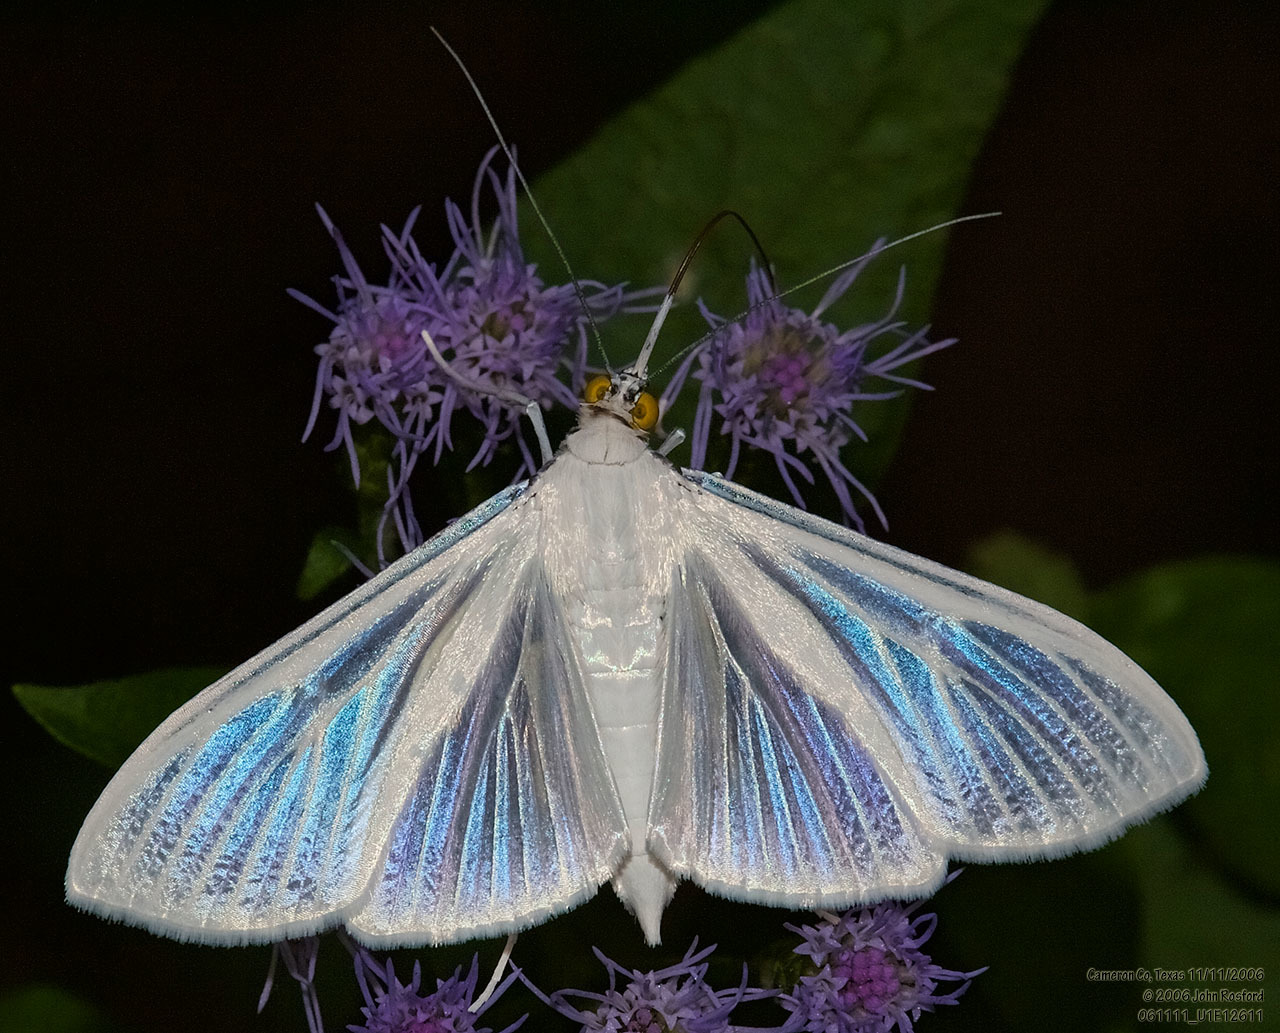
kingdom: Animalia
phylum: Arthropoda
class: Insecta
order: Lepidoptera
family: Crambidae
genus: Palpita
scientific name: Palpita flegia
